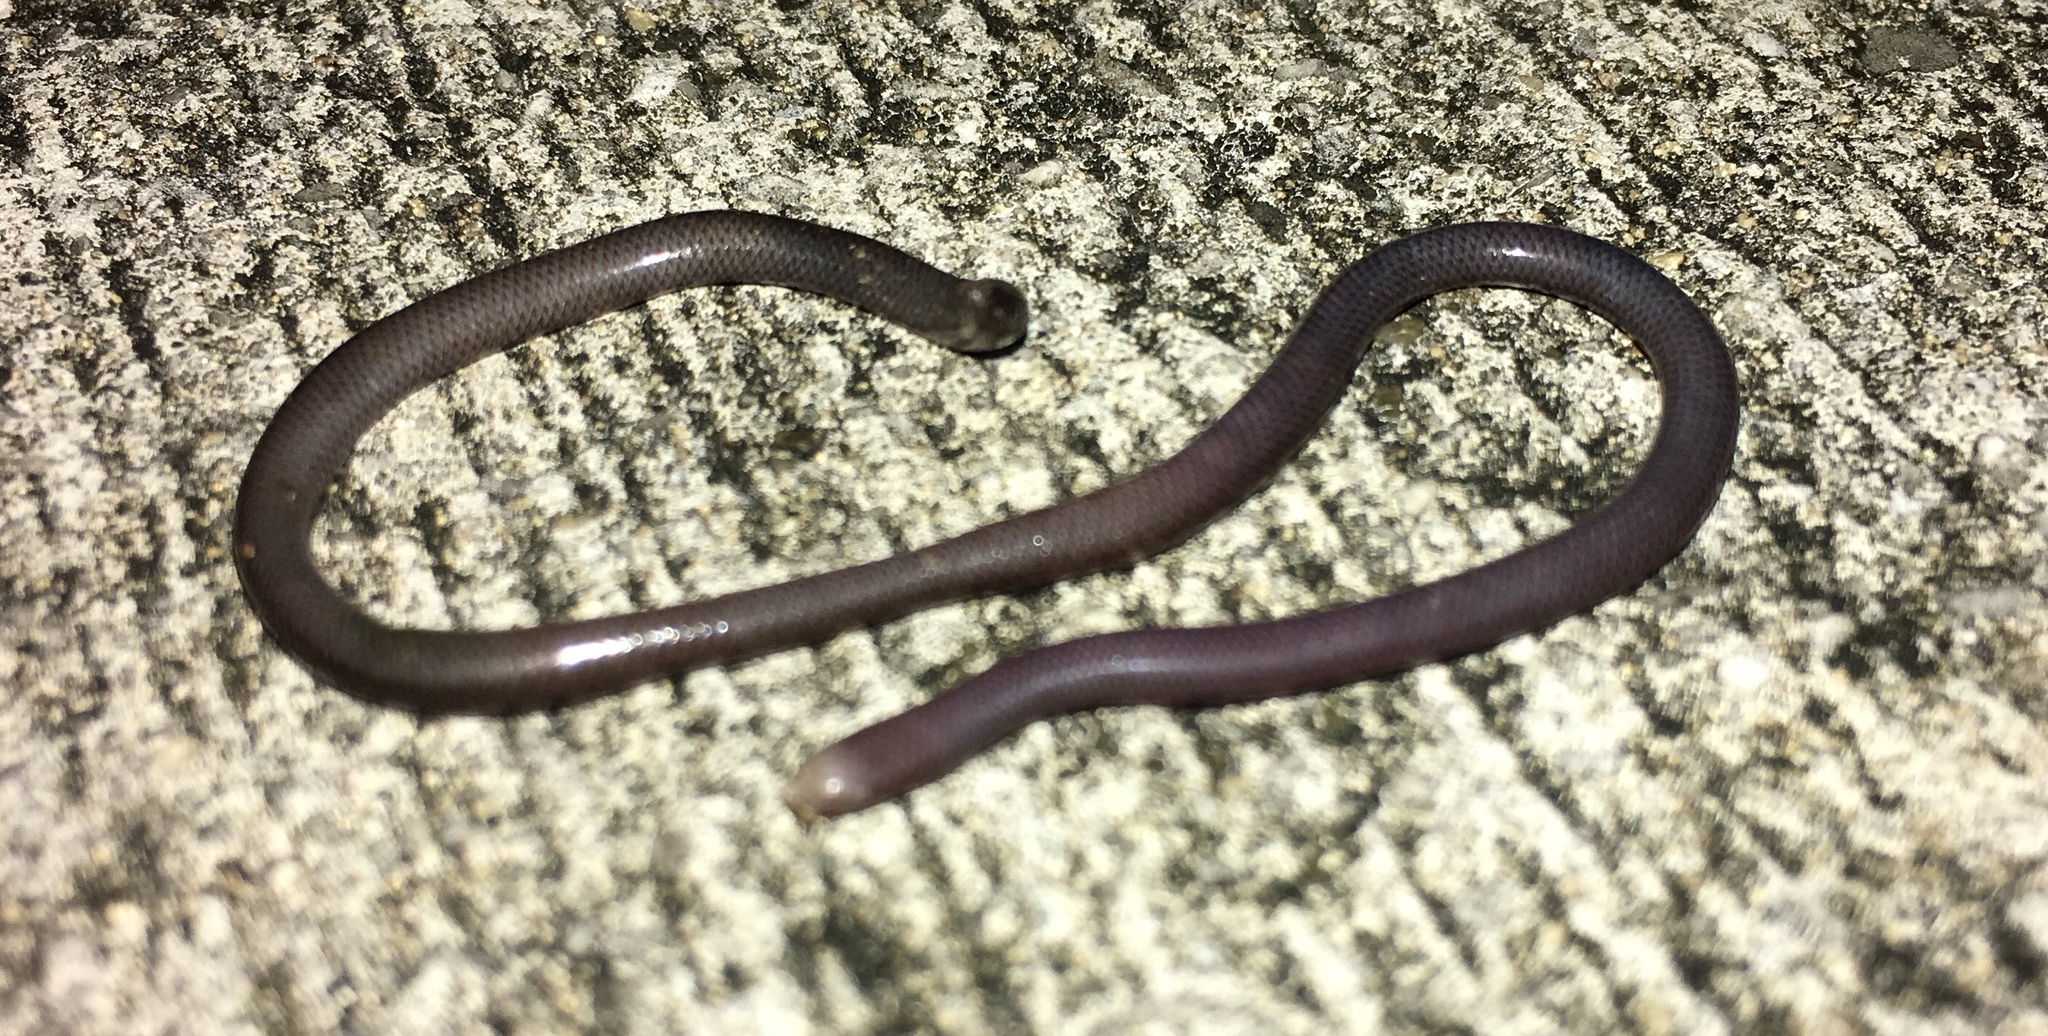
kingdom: Animalia
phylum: Chordata
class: Squamata
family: Typhlopidae
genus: Indotyphlops
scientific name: Indotyphlops braminus
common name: Brahminy blindsnake
